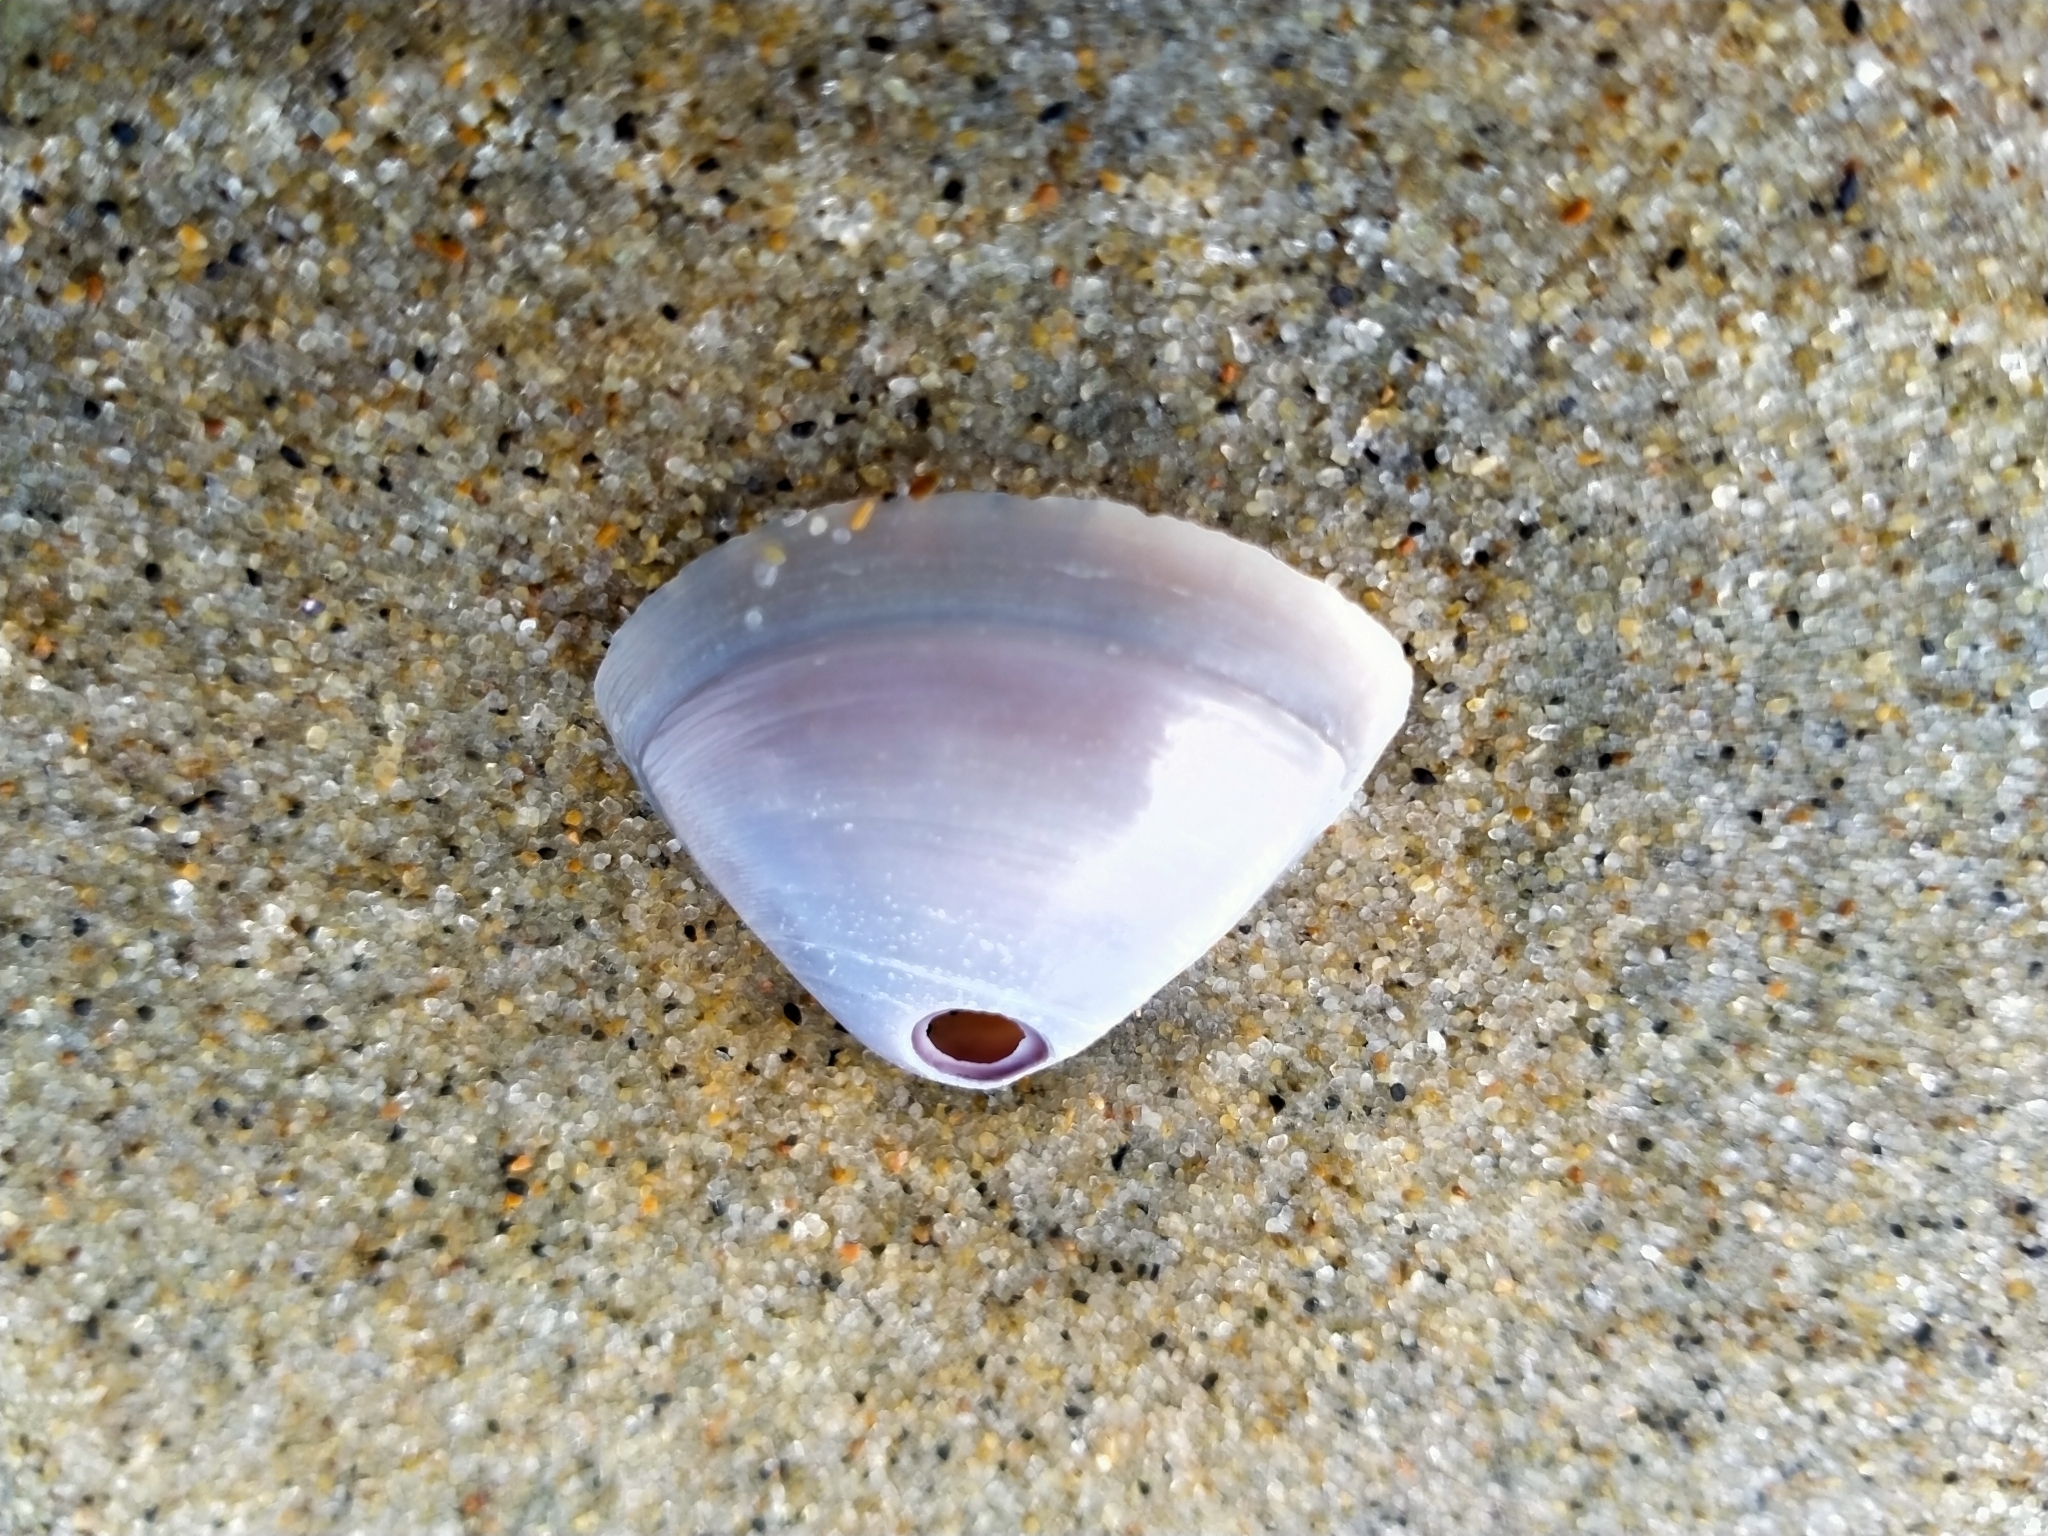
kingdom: Animalia
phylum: Mollusca
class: Bivalvia
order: Venerida
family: Mactridae
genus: Crassula
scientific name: Crassula aequilatera
